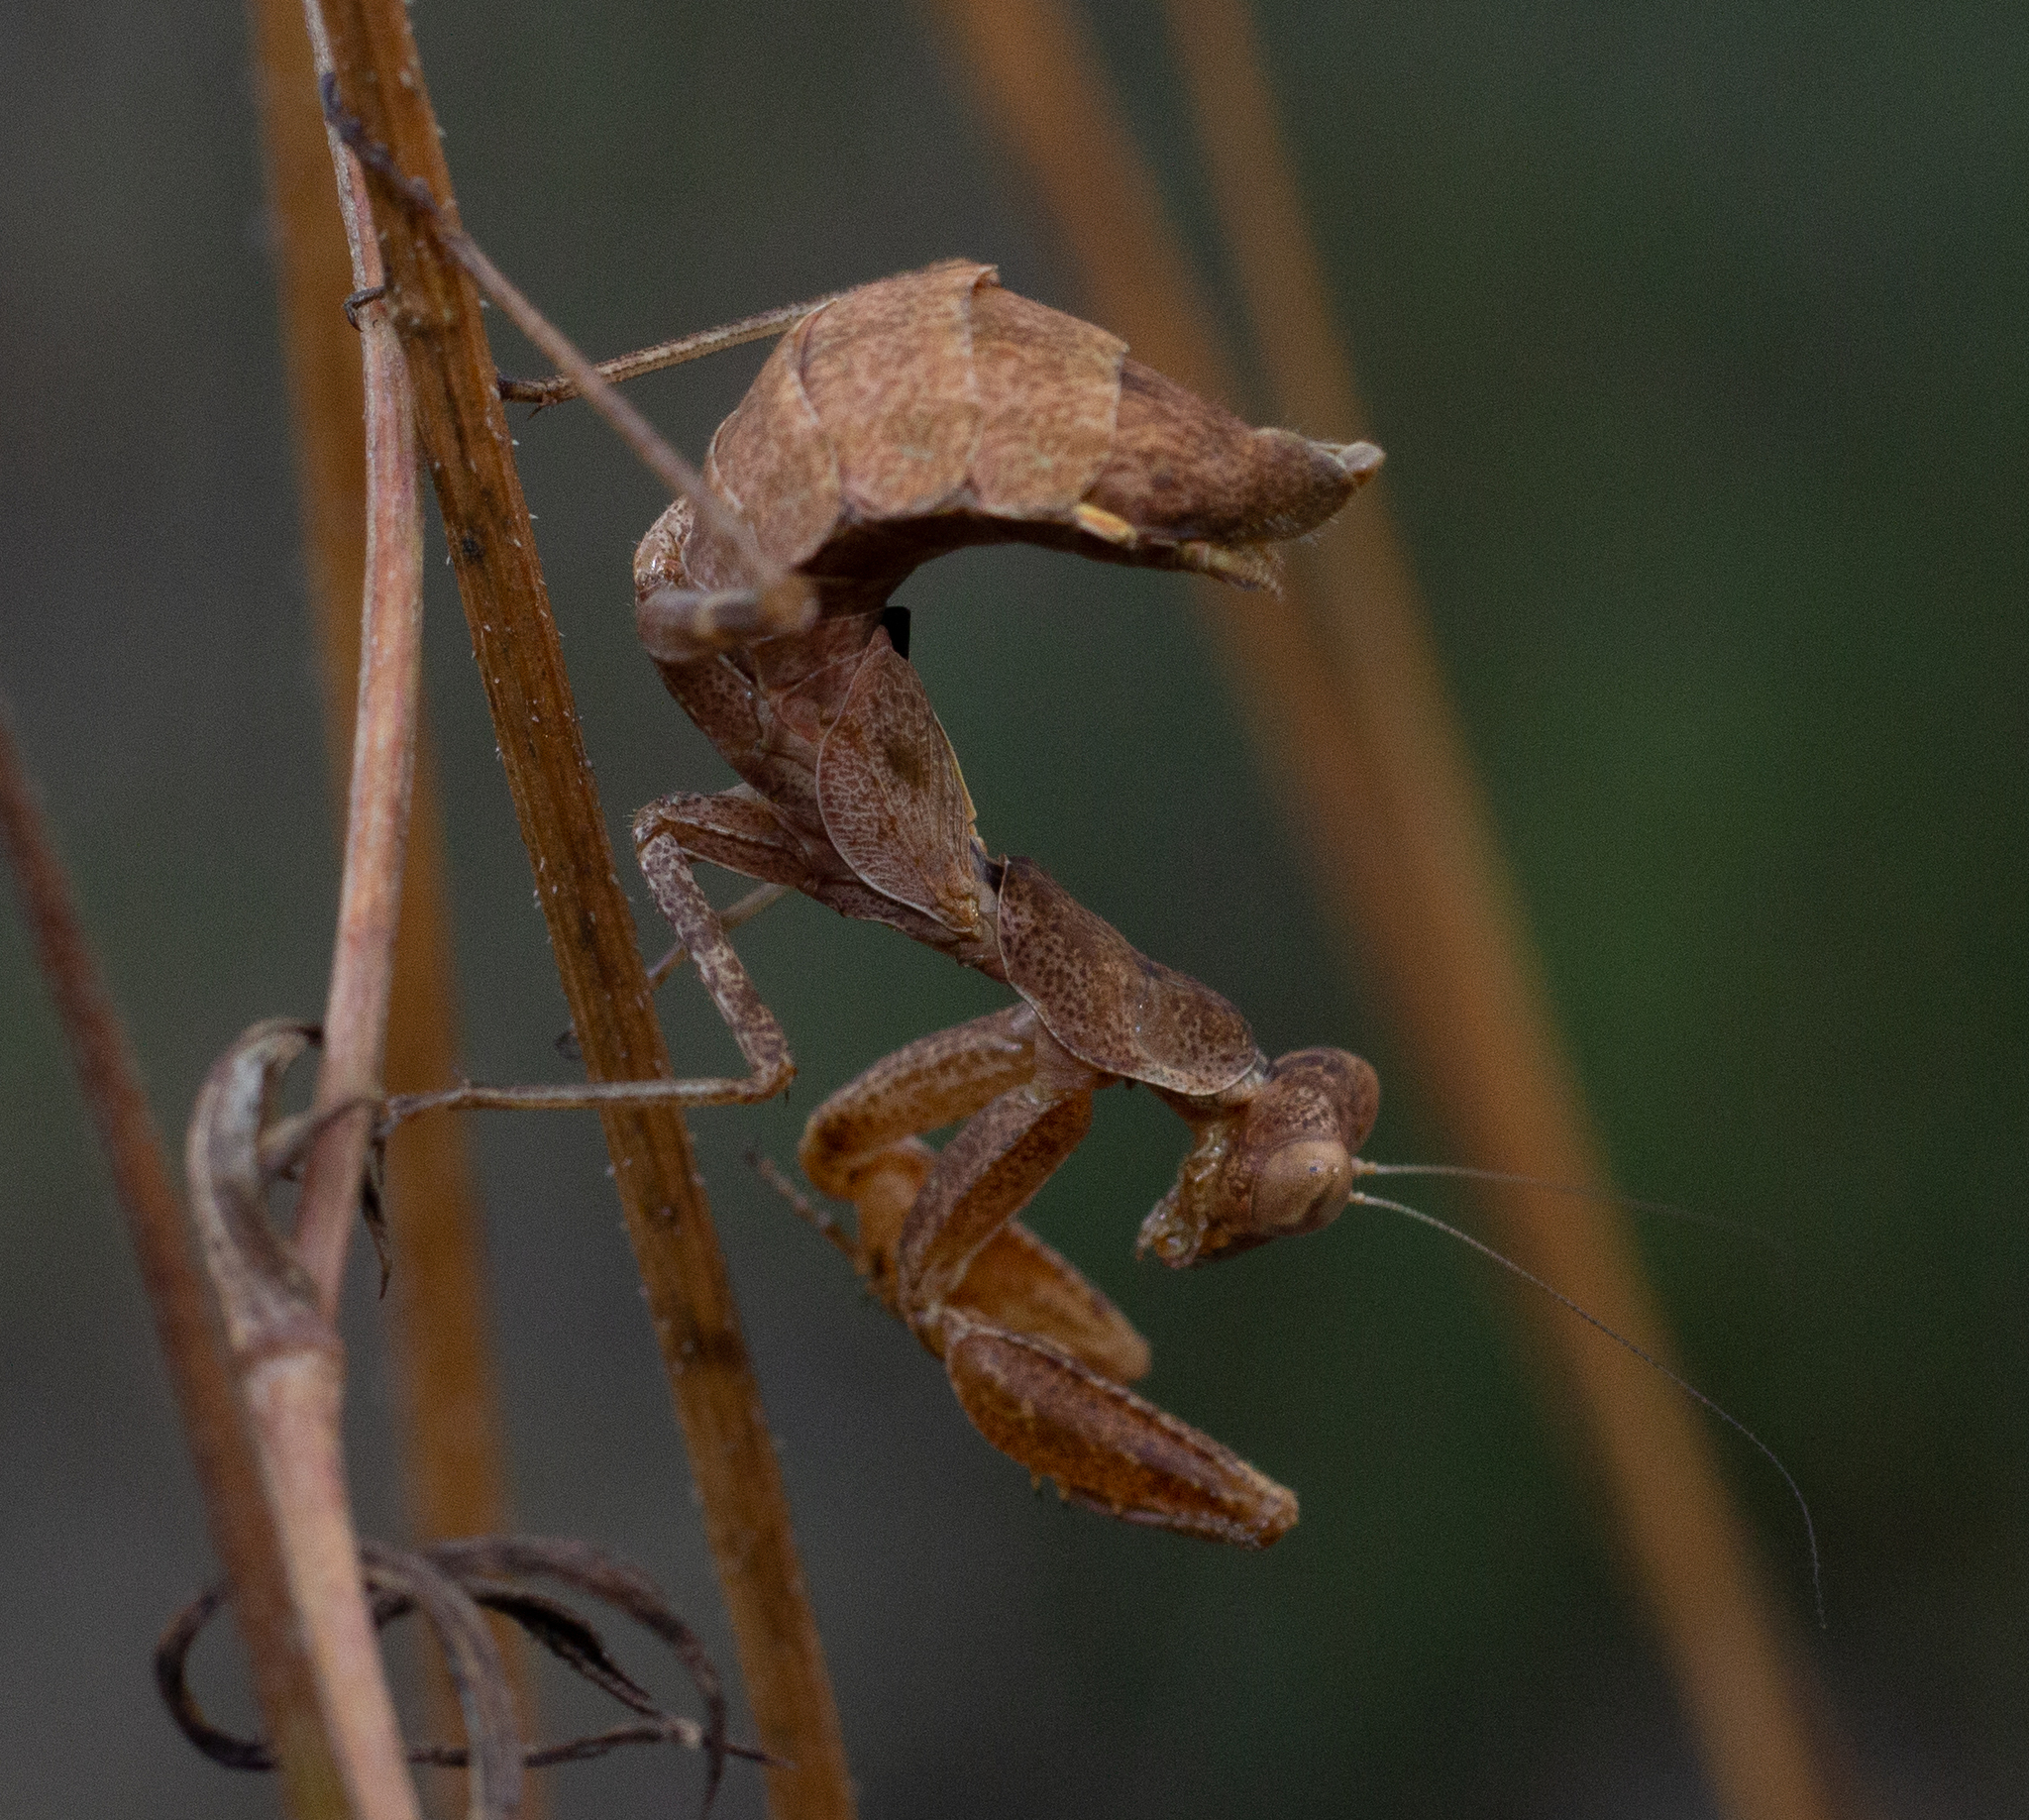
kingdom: Animalia
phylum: Arthropoda
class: Insecta
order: Mantodea
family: Amelidae
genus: Ameles
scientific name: Ameles spallanzania
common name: European dwarf mantis
